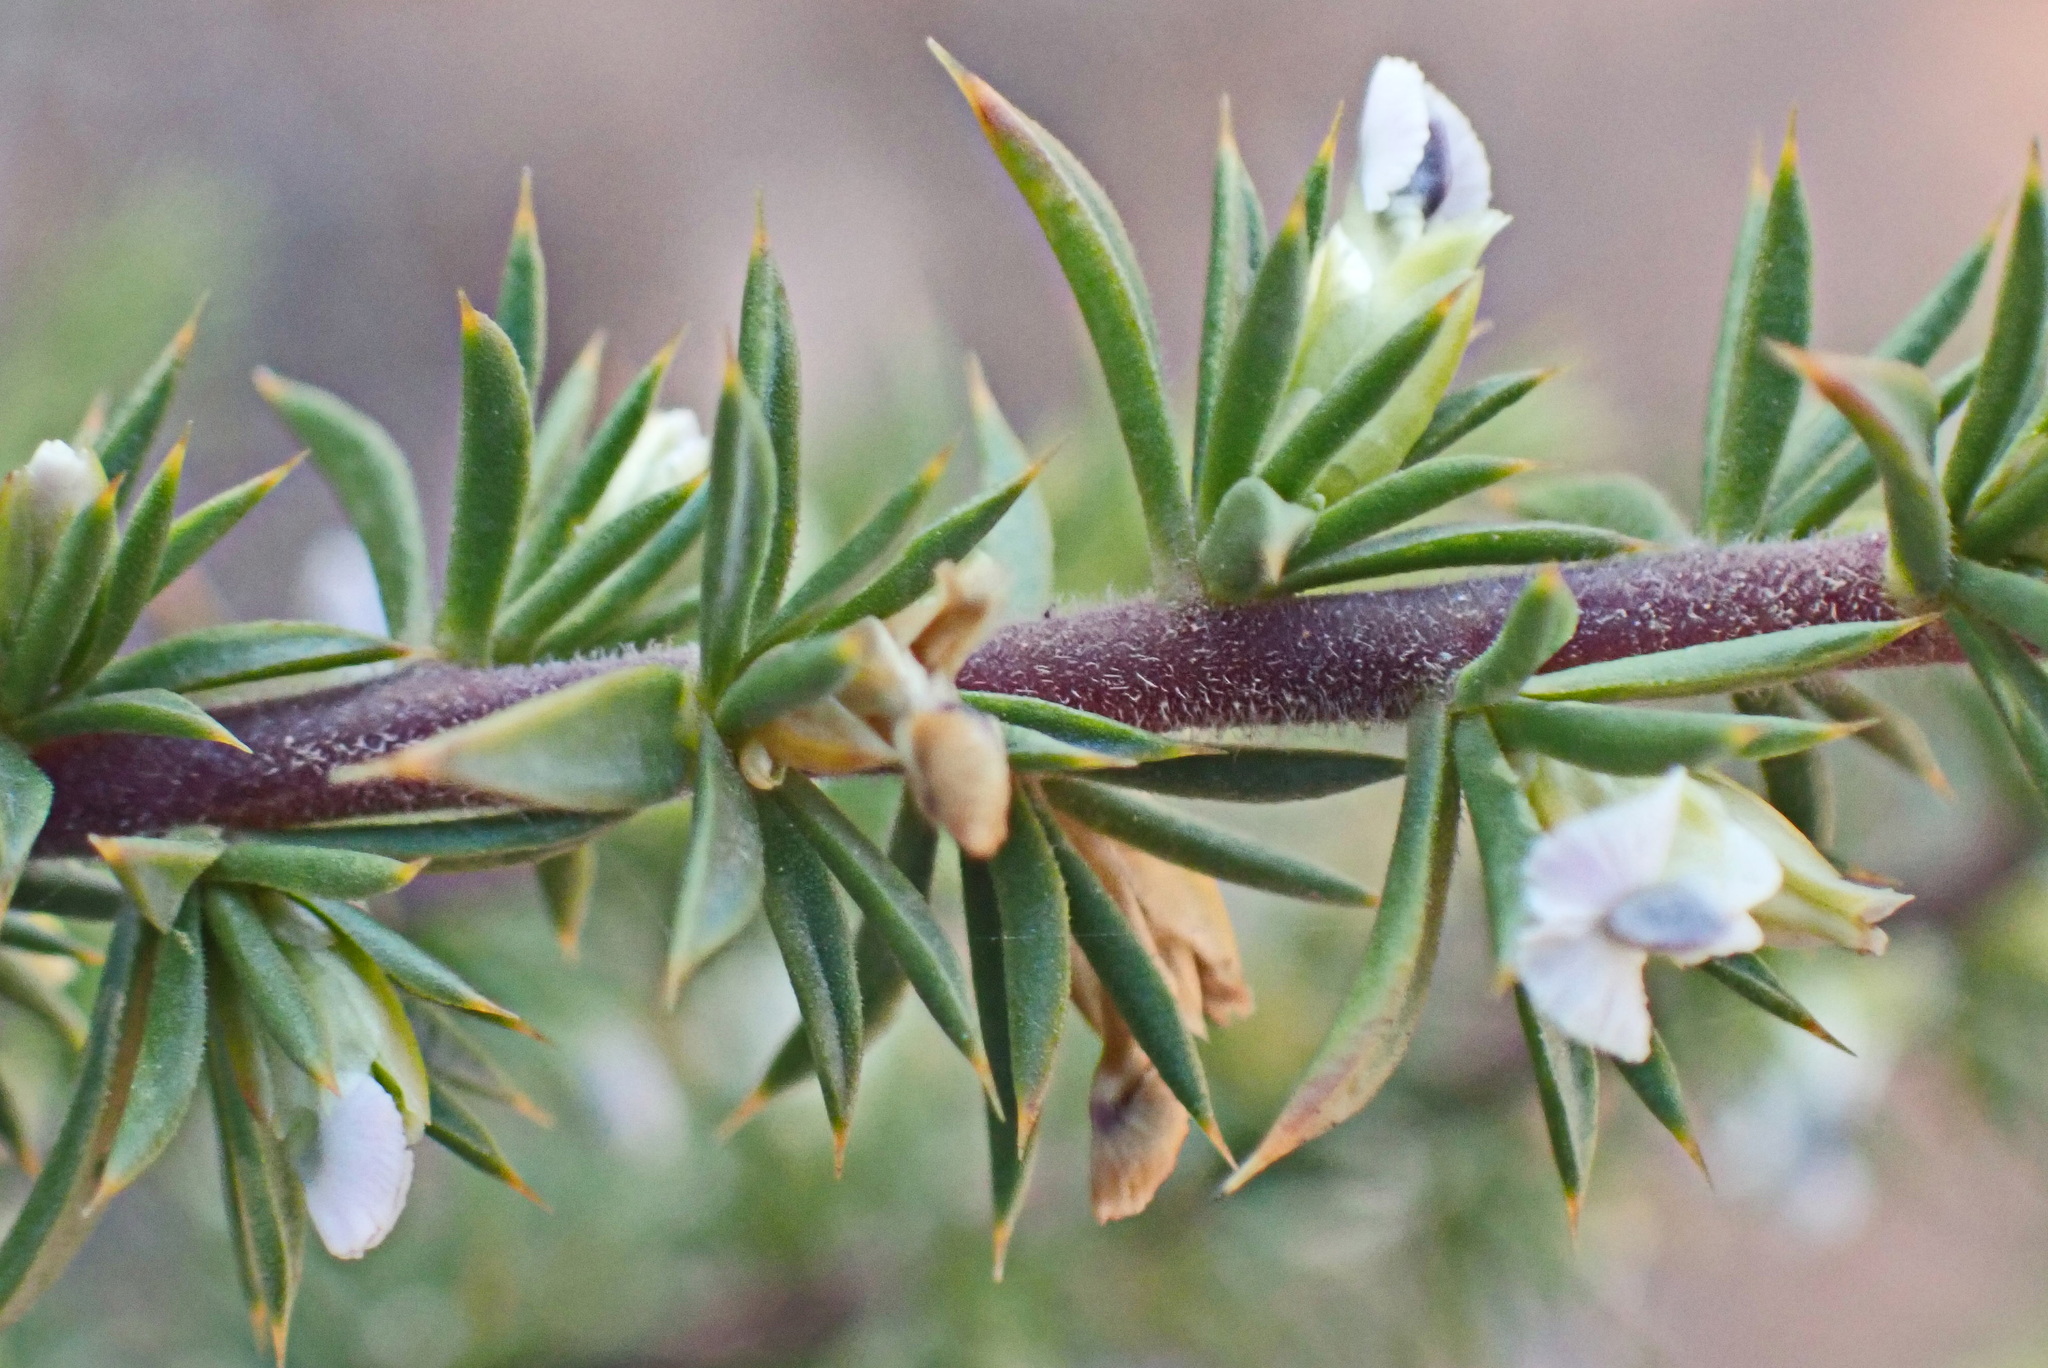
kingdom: Plantae
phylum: Tracheophyta
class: Magnoliopsida
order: Fabales
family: Polygalaceae
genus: Muraltia
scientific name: Muraltia ericifolia
